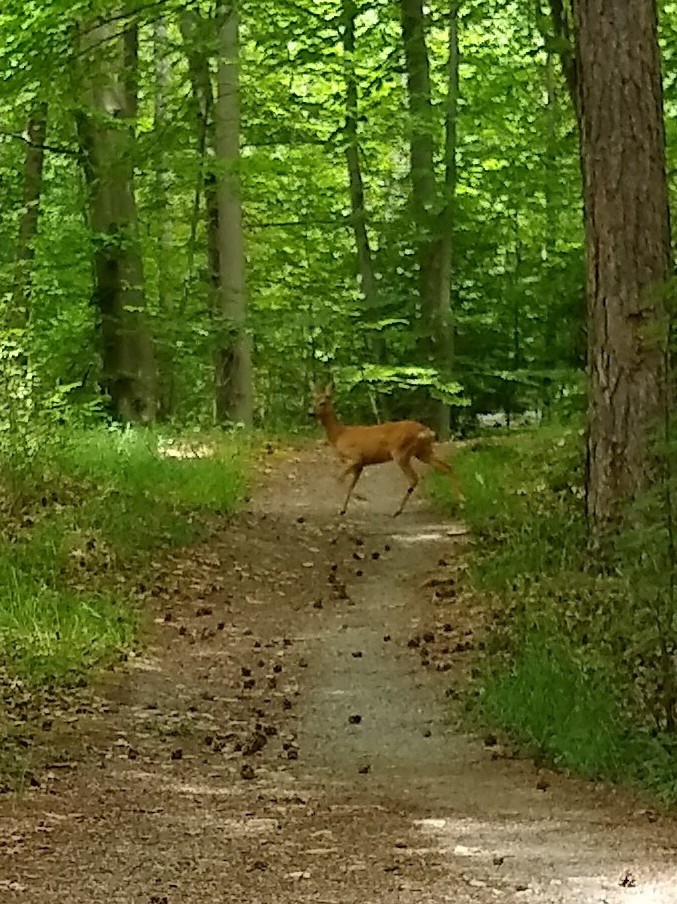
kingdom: Animalia
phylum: Chordata
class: Mammalia
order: Artiodactyla
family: Cervidae
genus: Capreolus
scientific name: Capreolus capreolus
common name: Western roe deer
